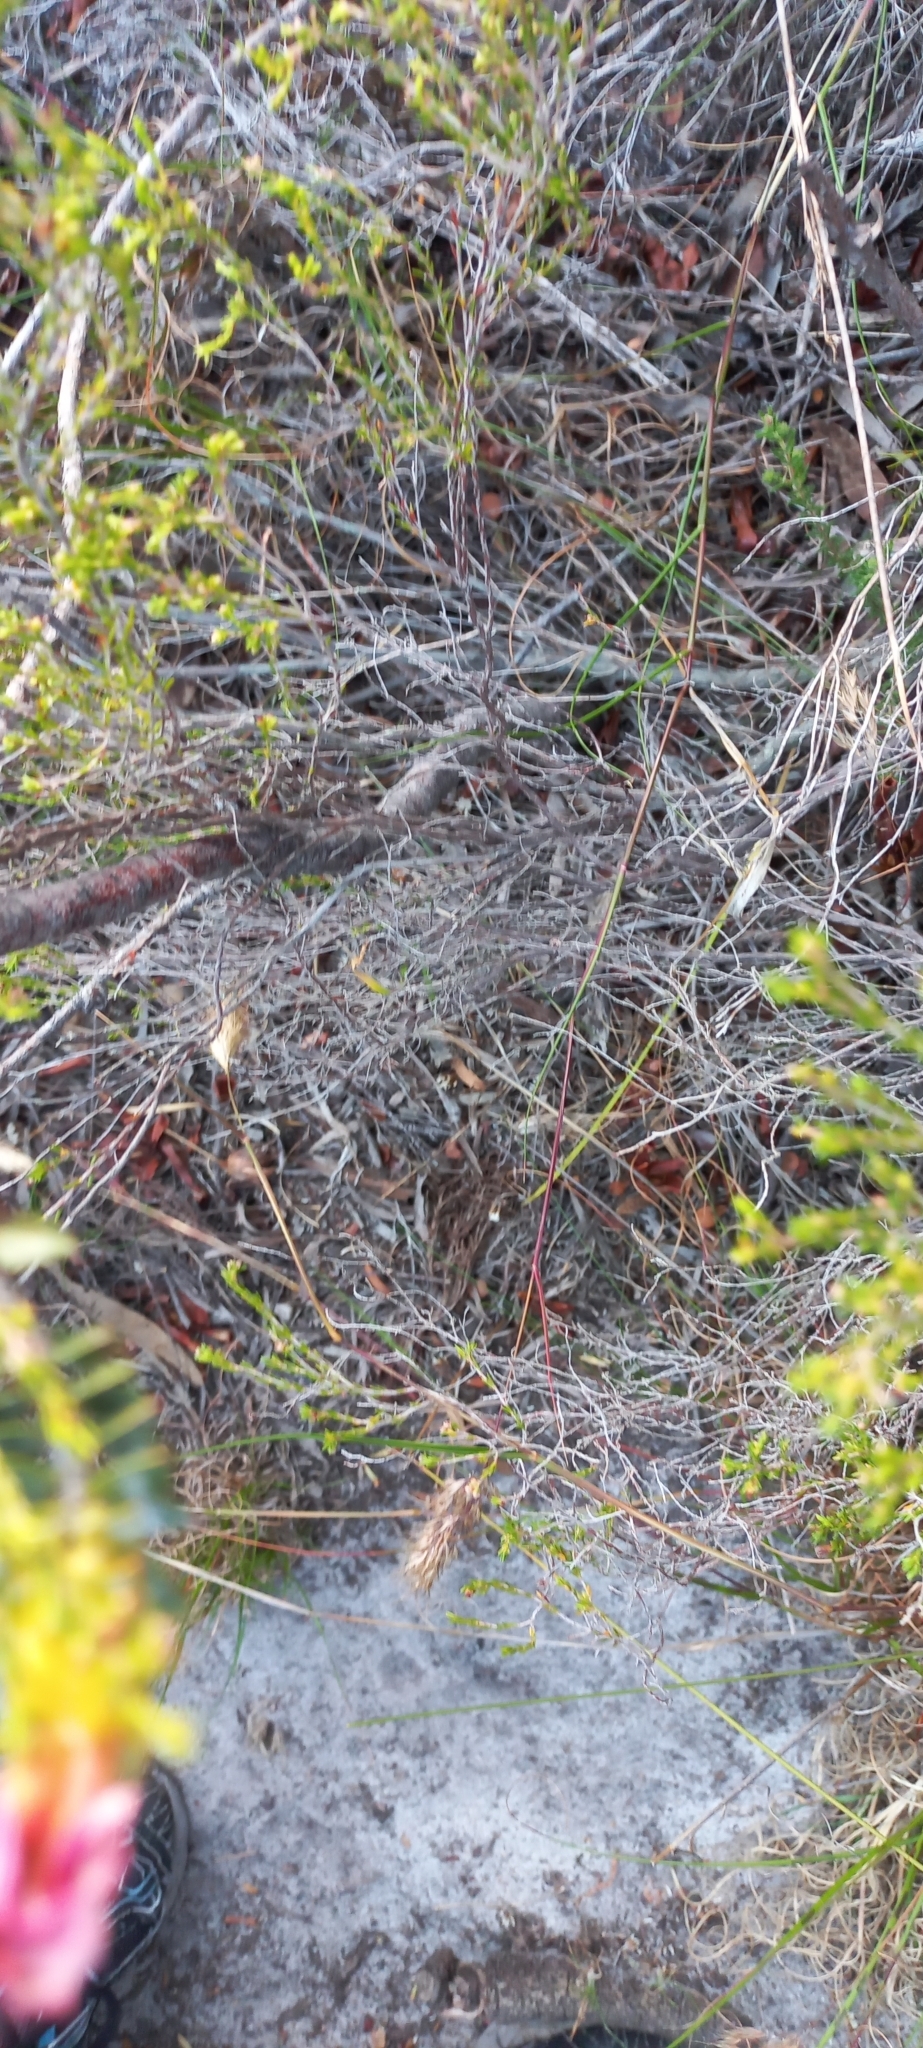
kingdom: Plantae
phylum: Tracheophyta
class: Magnoliopsida
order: Proteales
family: Proteaceae
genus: Leucadendron
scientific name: Leucadendron xanthoconus
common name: Sickle-leaf conebush
